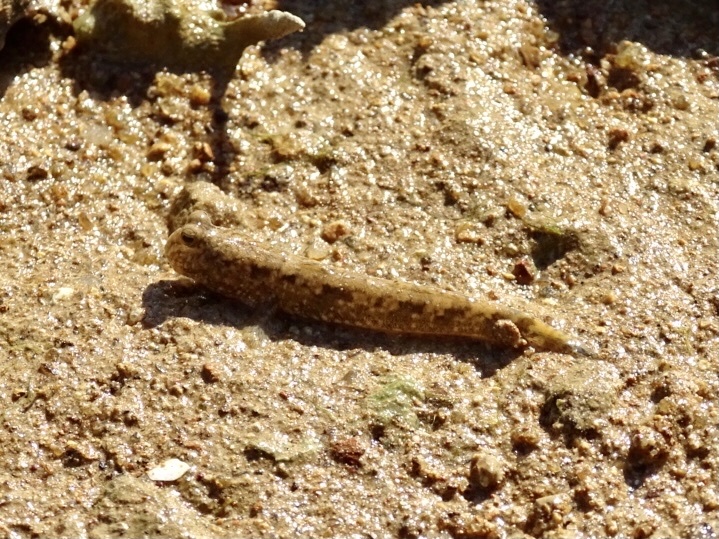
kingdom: Animalia
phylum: Chordata
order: Perciformes
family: Gobiidae
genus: Periophthalmus
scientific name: Periophthalmus modestus
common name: Black goby
